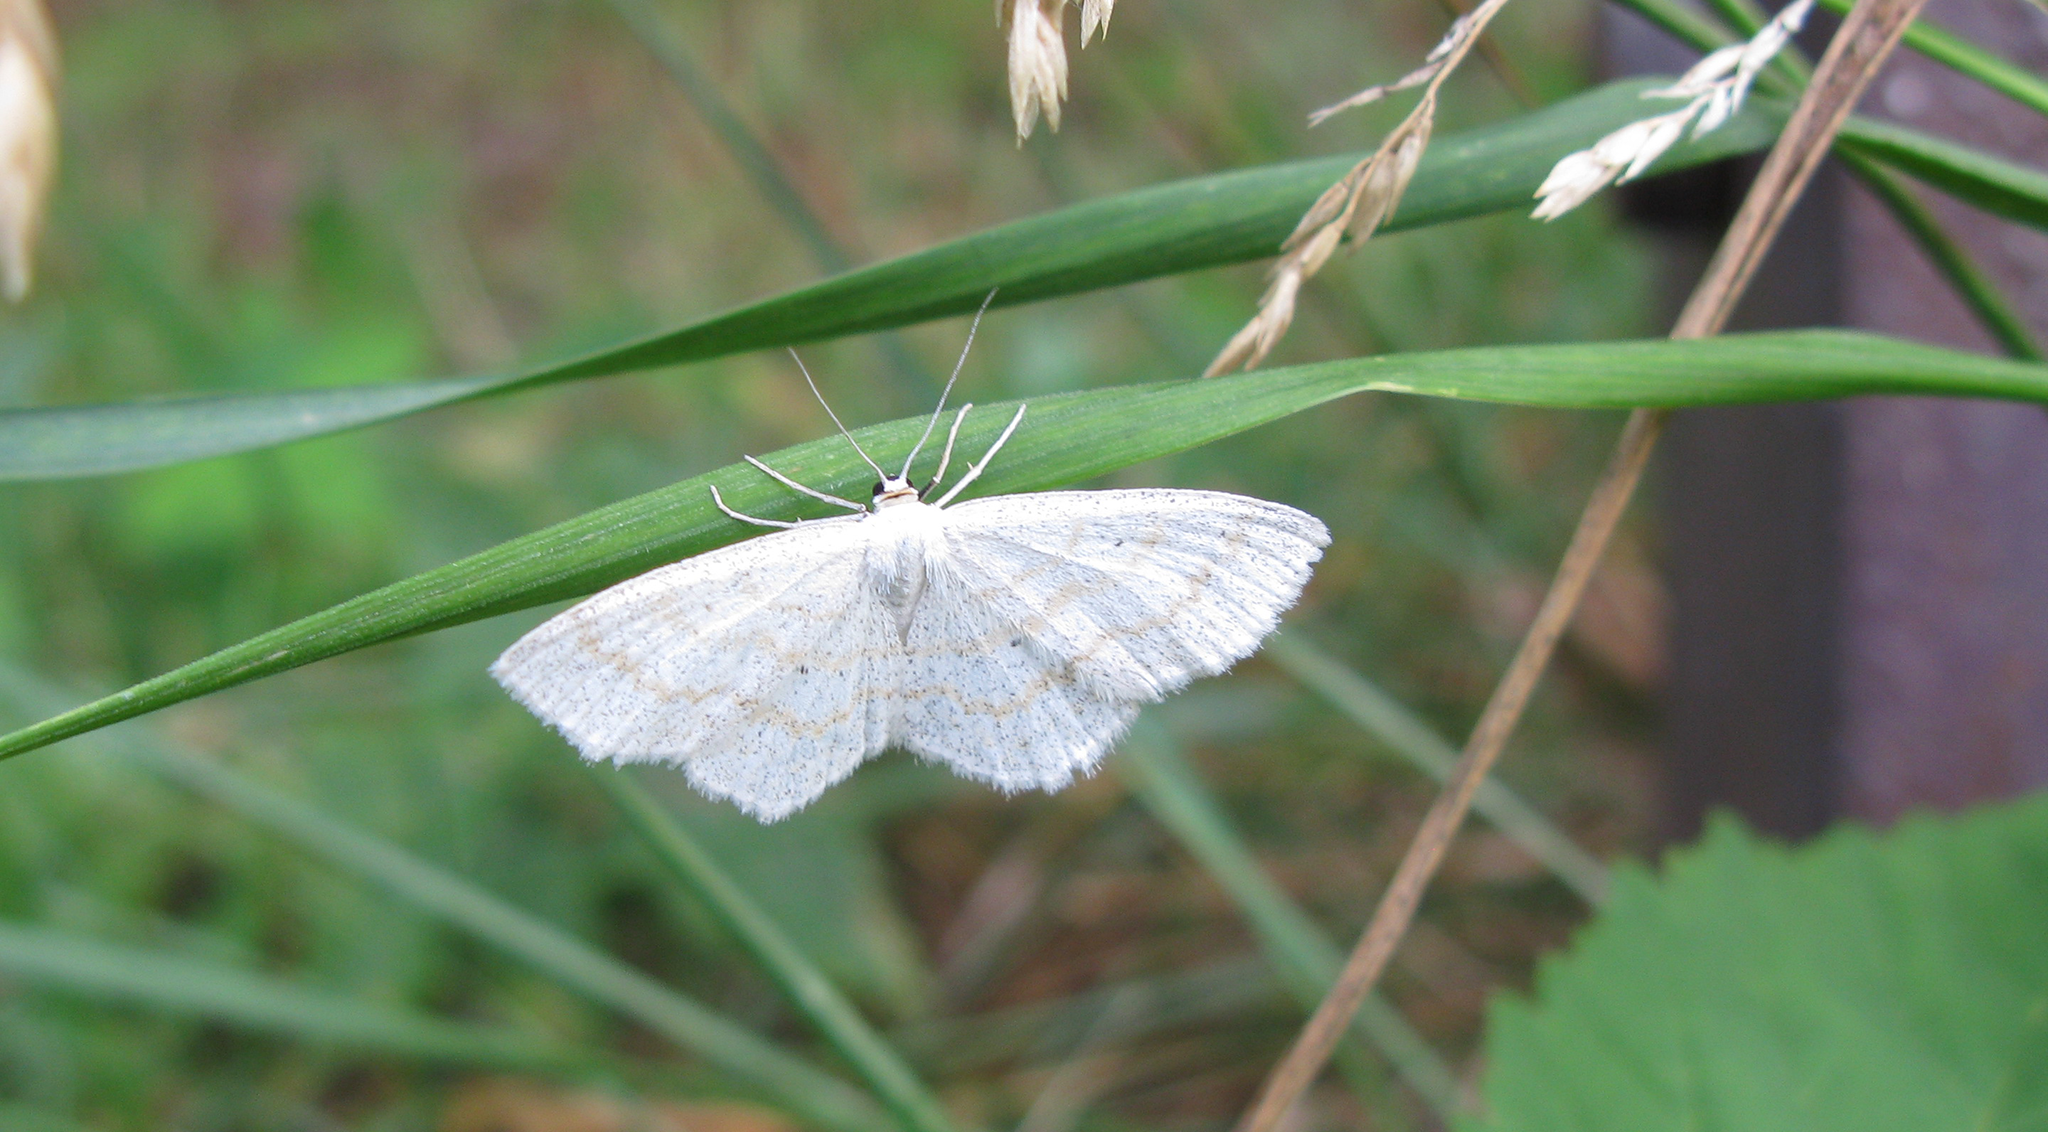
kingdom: Animalia
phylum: Arthropoda
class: Insecta
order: Lepidoptera
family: Geometridae
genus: Scopula
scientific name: Scopula immutata
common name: Lesser cream wave
